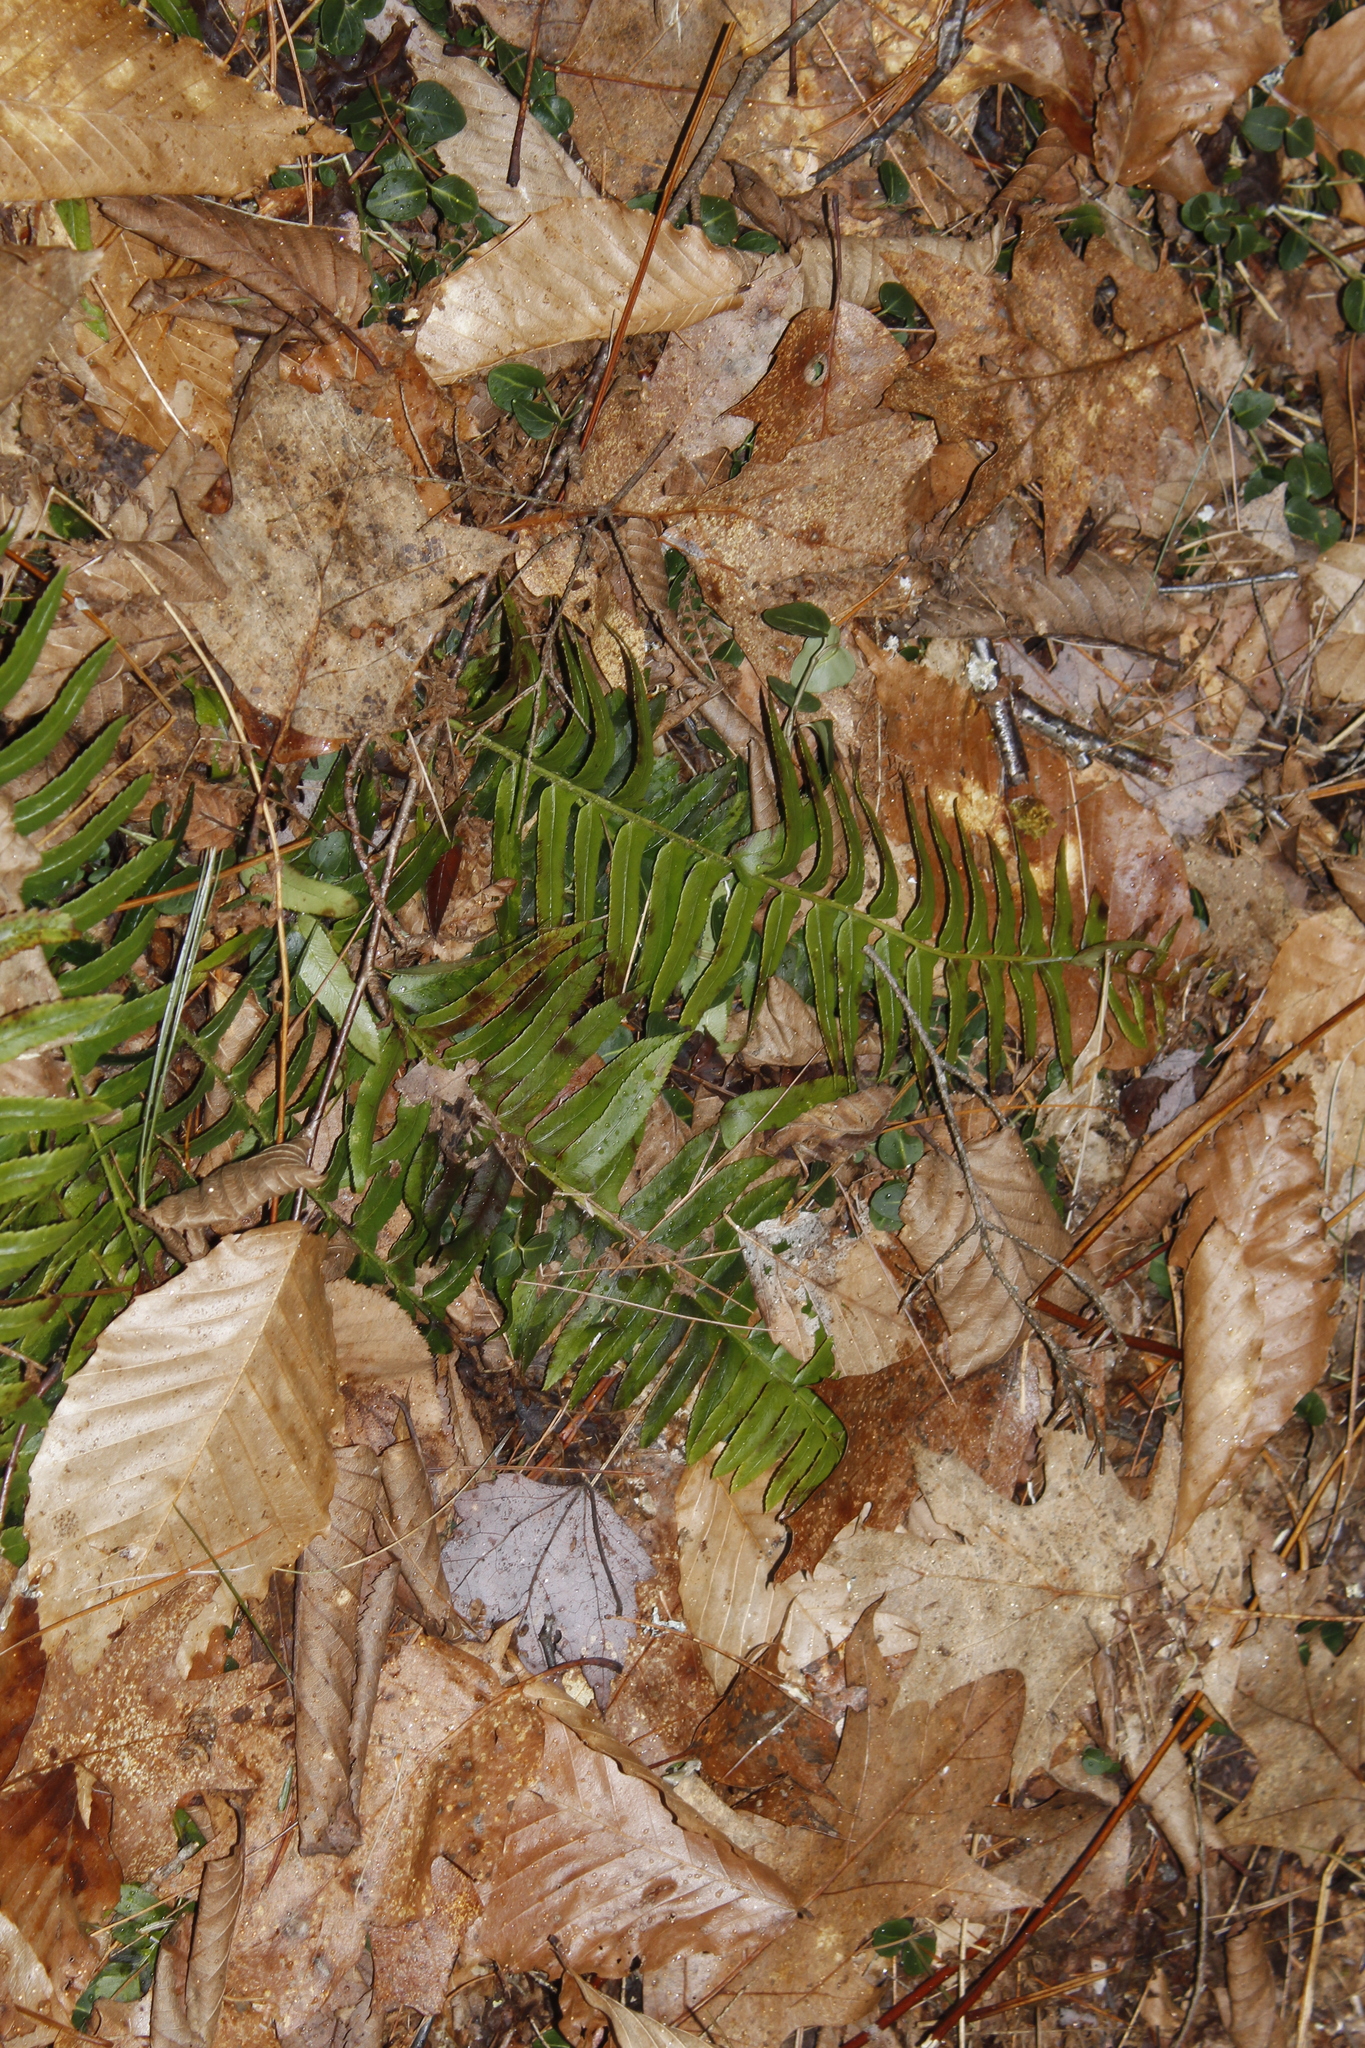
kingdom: Plantae
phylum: Tracheophyta
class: Polypodiopsida
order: Polypodiales
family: Dryopteridaceae
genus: Polystichum
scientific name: Polystichum acrostichoides
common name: Christmas fern
